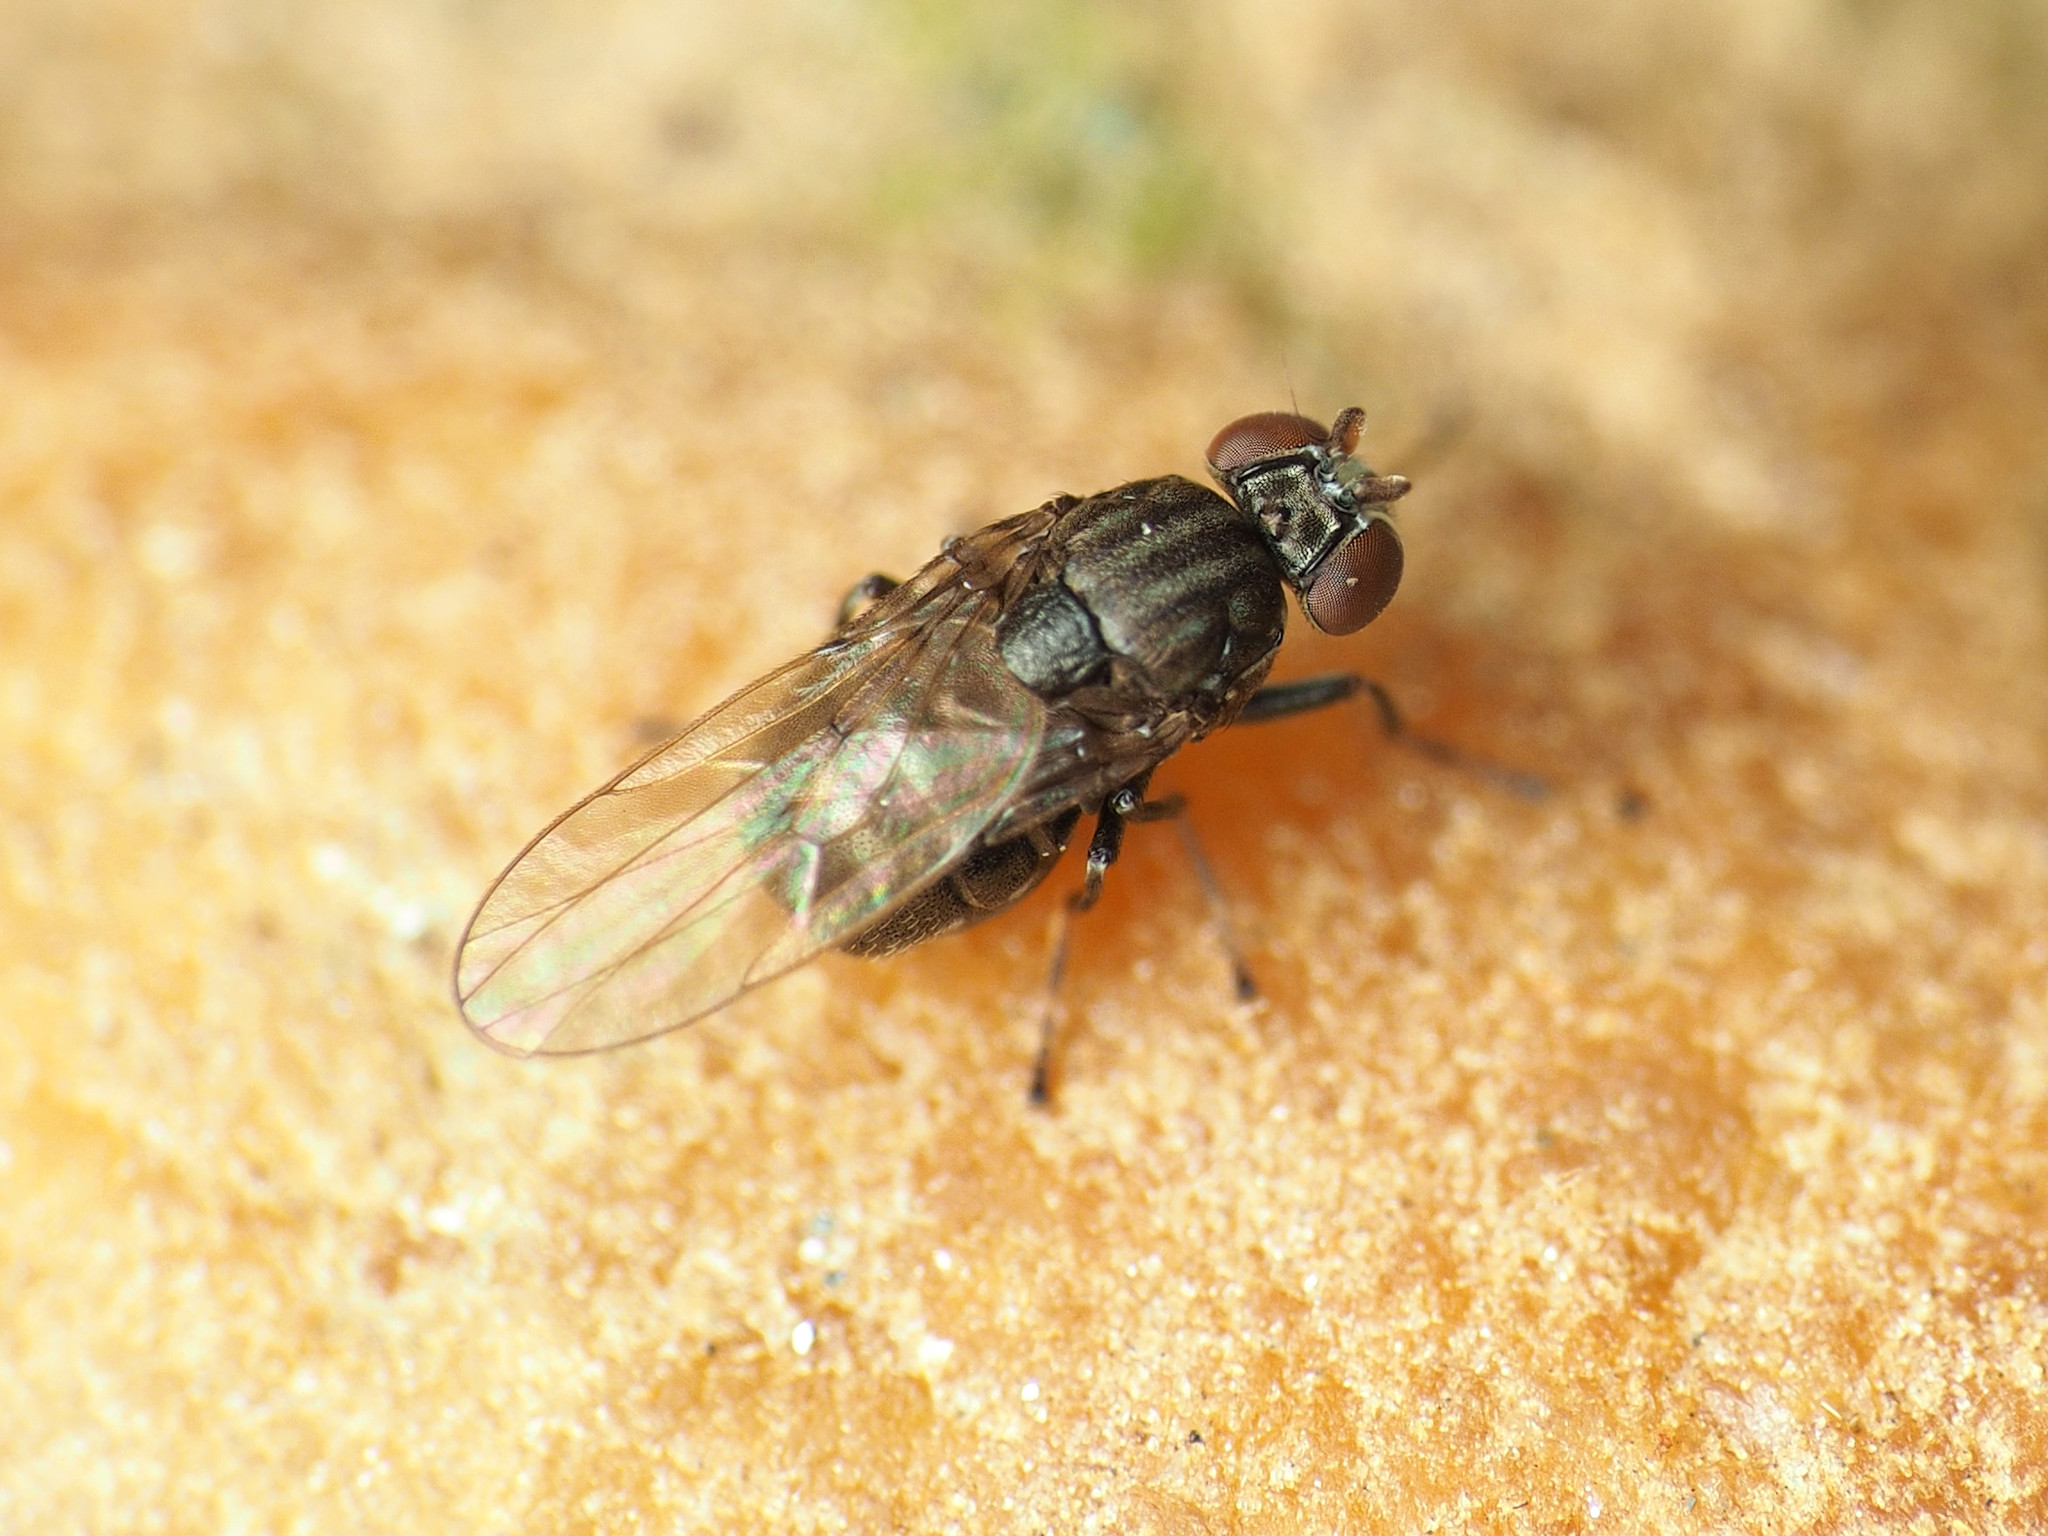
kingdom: Animalia
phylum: Arthropoda
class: Insecta
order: Diptera
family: Ephydridae
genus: Lytogaster
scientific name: Lytogaster excavata
